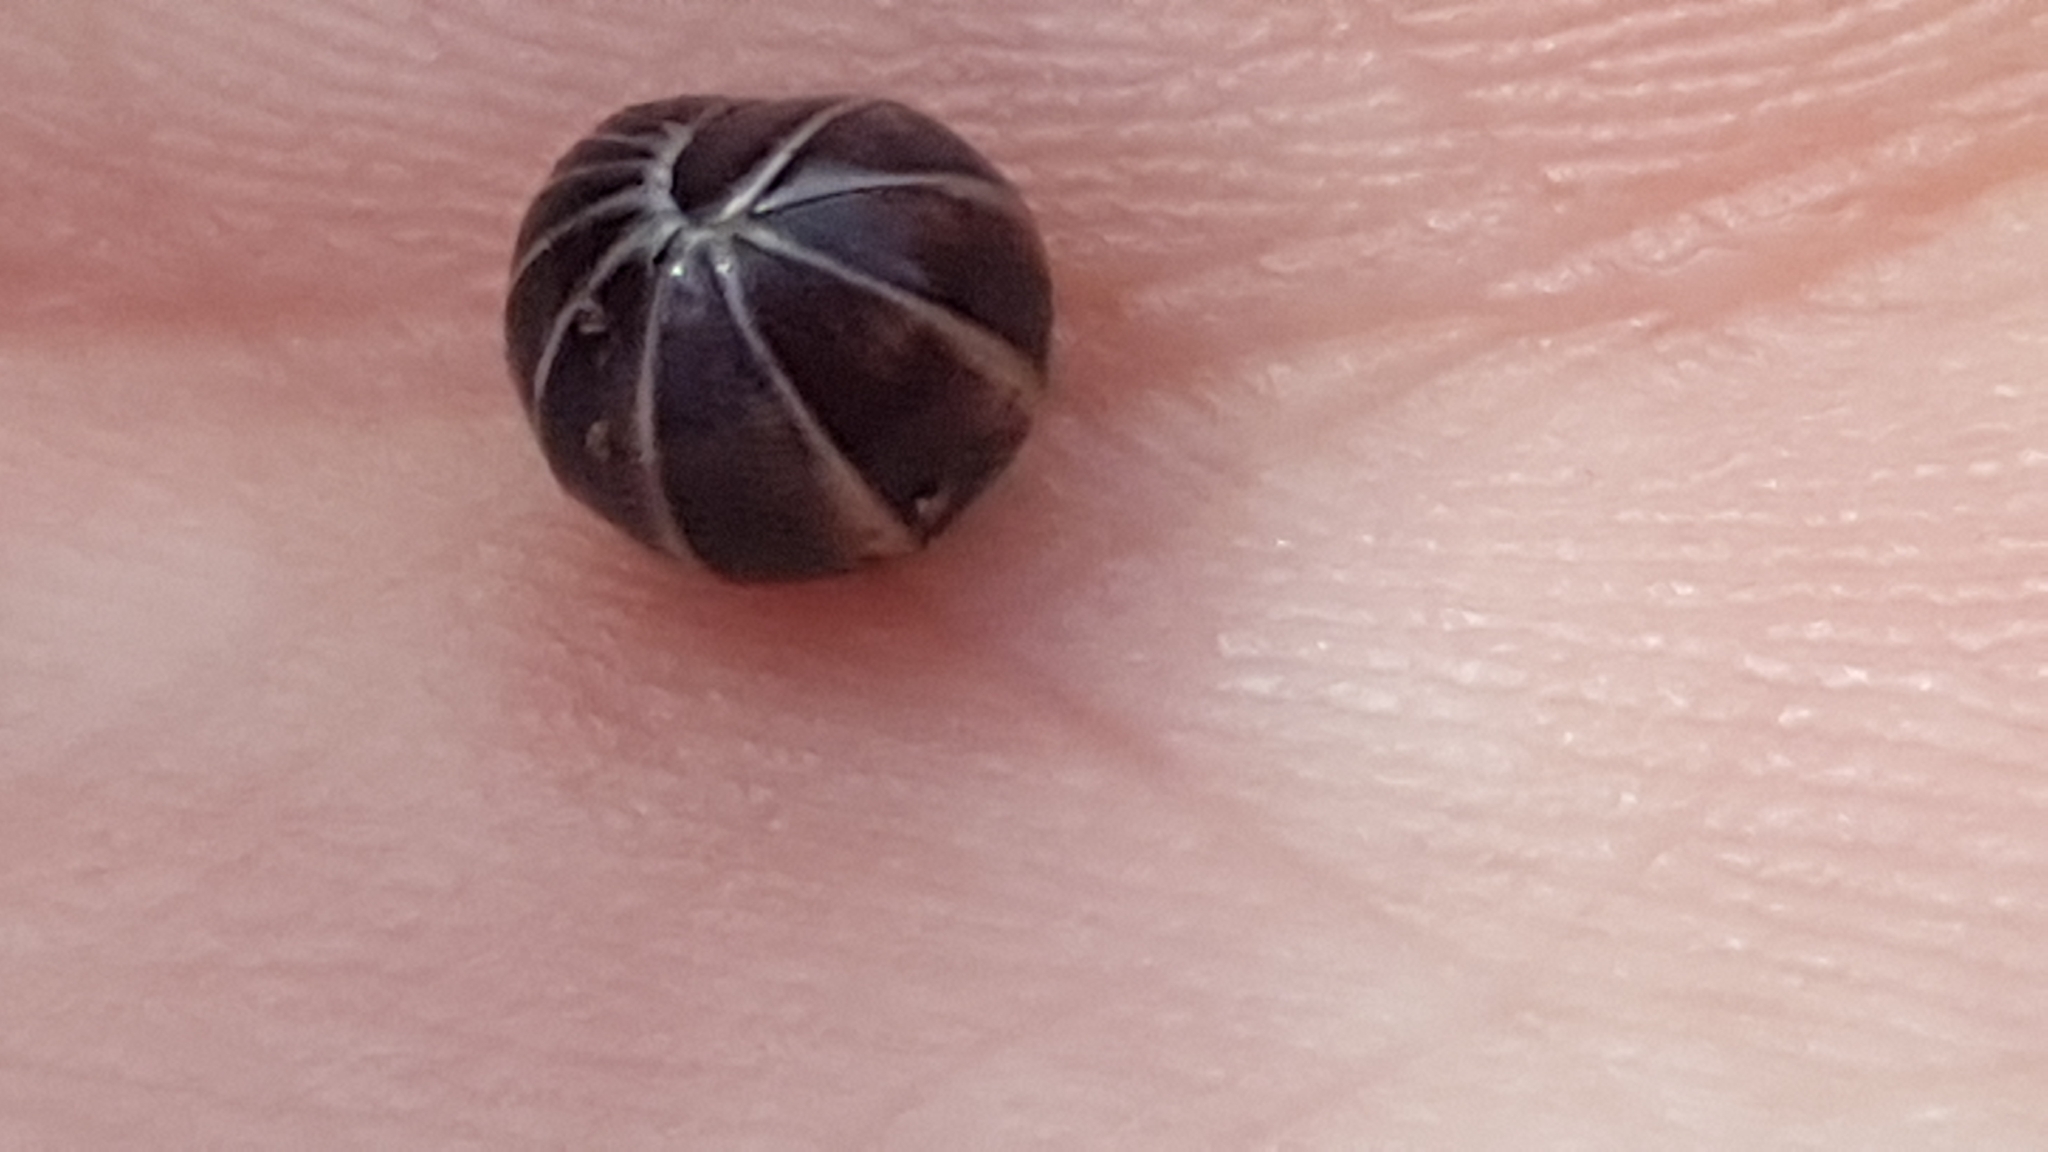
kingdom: Animalia
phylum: Arthropoda
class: Diplopoda
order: Glomerida
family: Glomeridae
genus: Glomeris
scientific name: Glomeris marginata
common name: Bordered pill millipede
